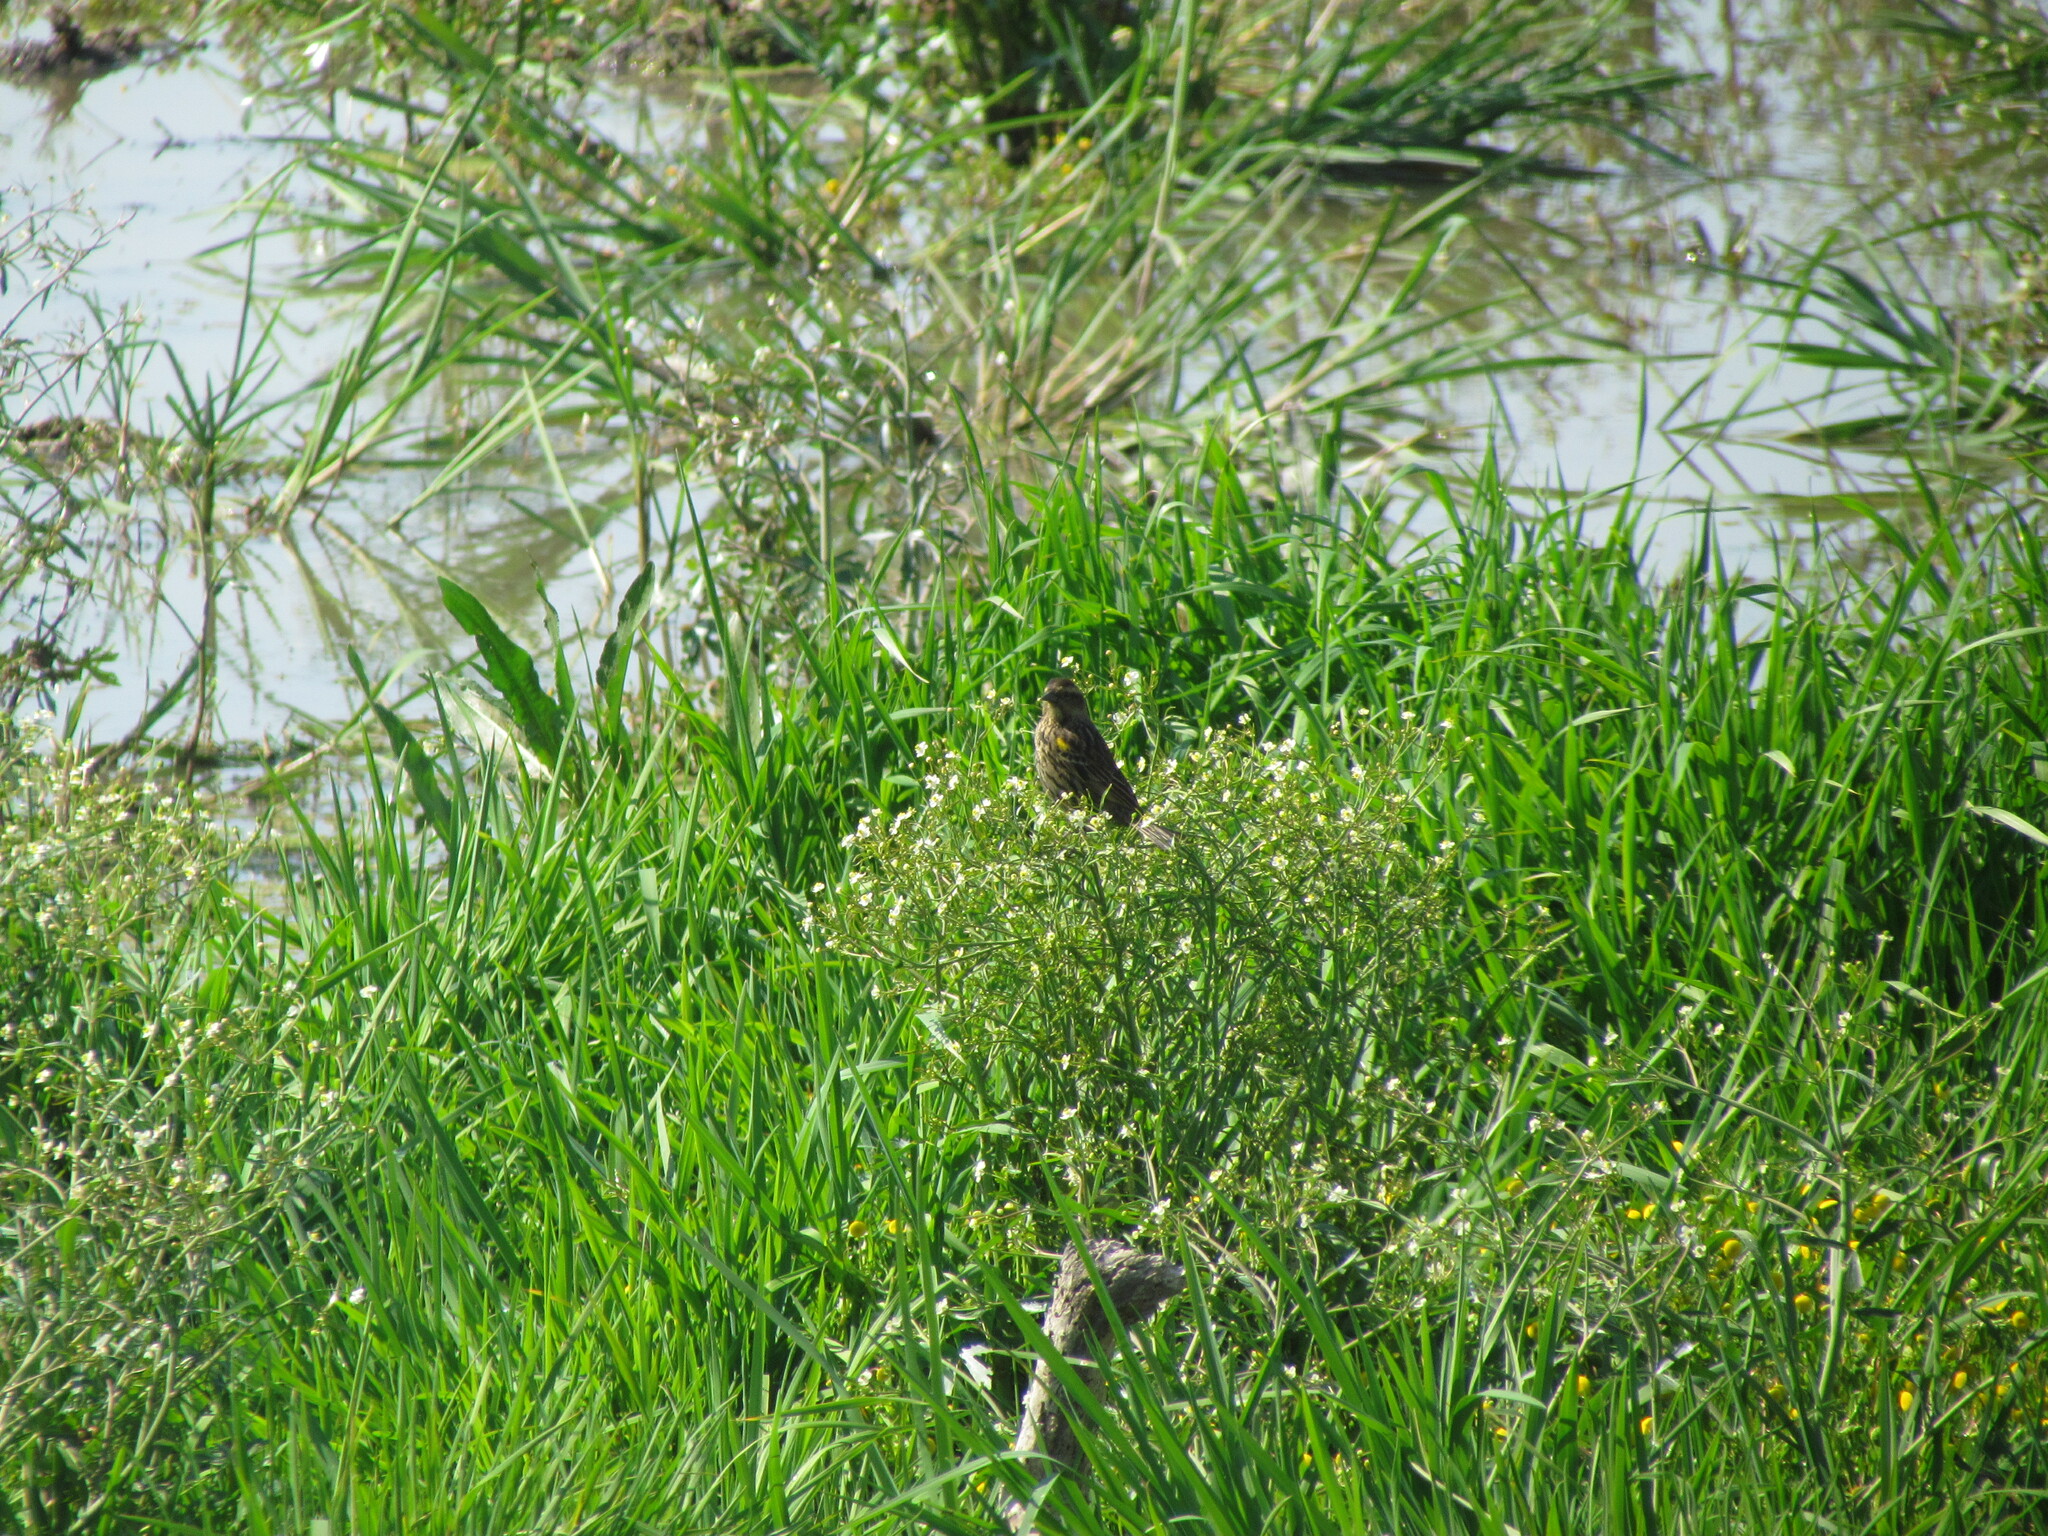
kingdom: Animalia
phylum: Chordata
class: Aves
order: Passeriformes
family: Icteridae
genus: Agelasticus
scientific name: Agelasticus thilius
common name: Yellow-winged blackbird
